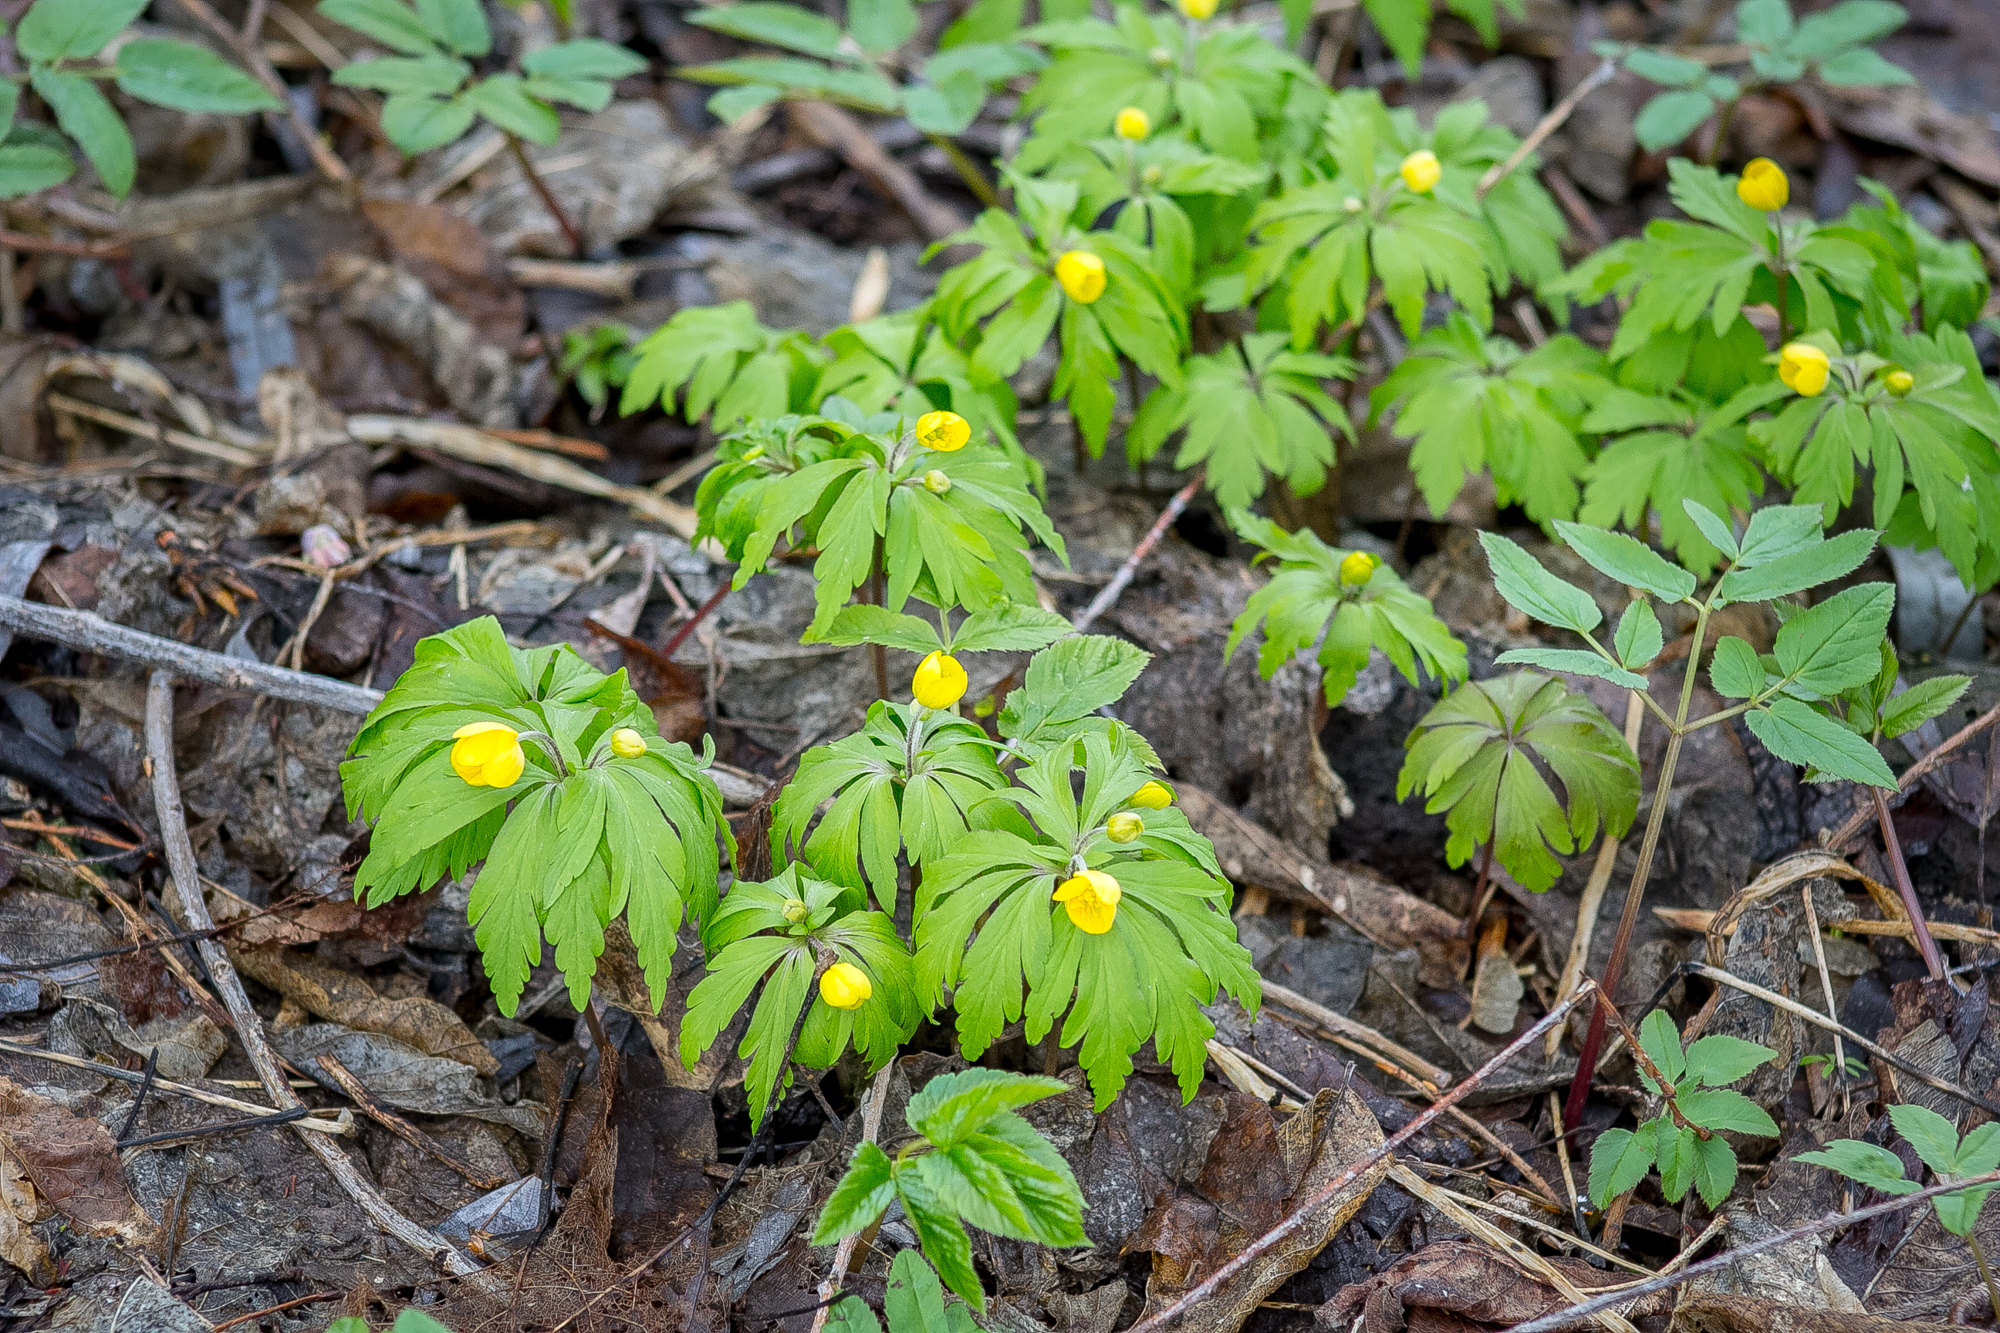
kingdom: Plantae
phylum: Tracheophyta
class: Magnoliopsida
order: Ranunculales
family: Ranunculaceae
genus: Anemone
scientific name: Anemone ranunculoides
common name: Yellow anemone
